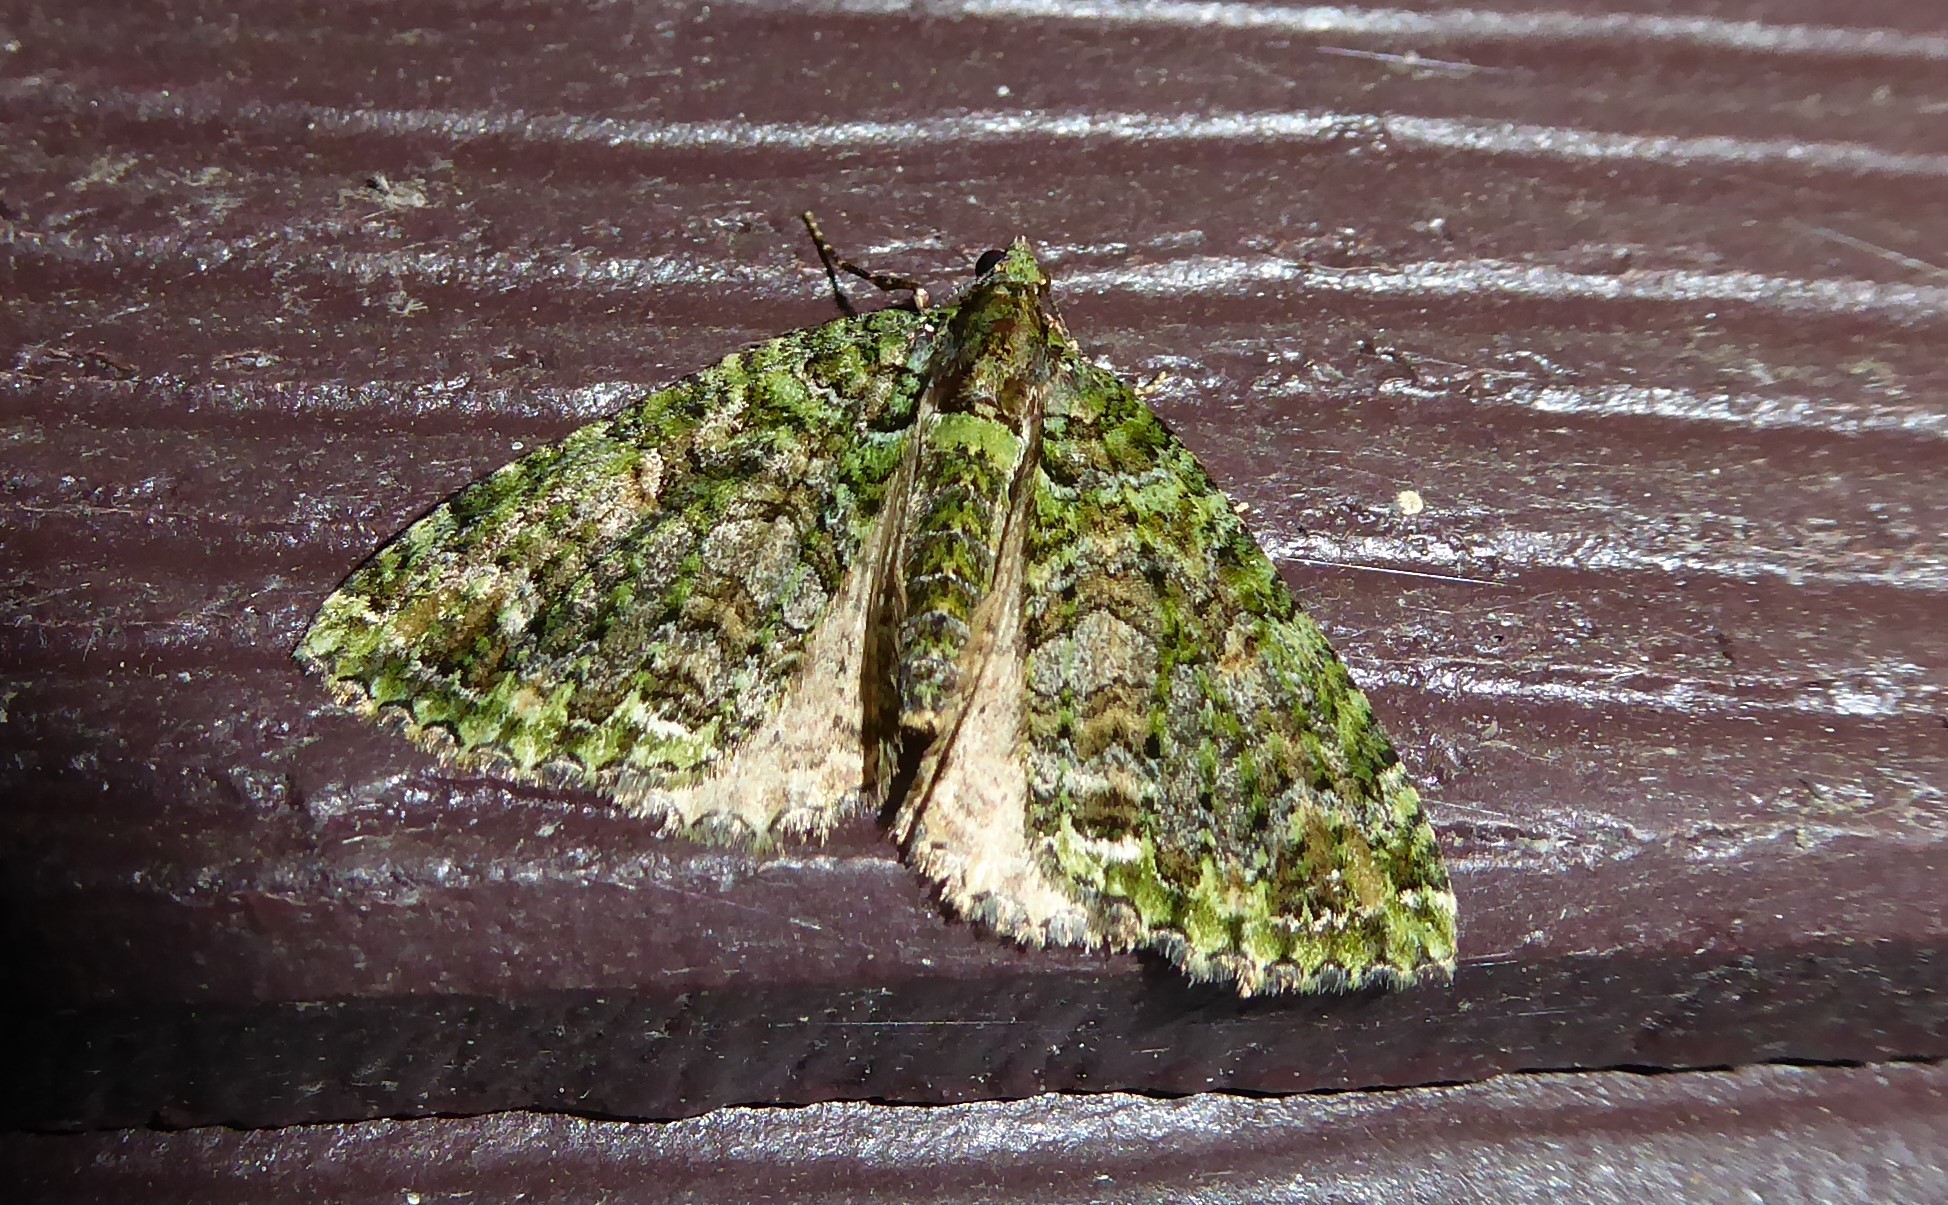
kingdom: Animalia
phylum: Arthropoda
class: Insecta
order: Lepidoptera
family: Geometridae
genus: Austrocidaria
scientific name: Austrocidaria similata
